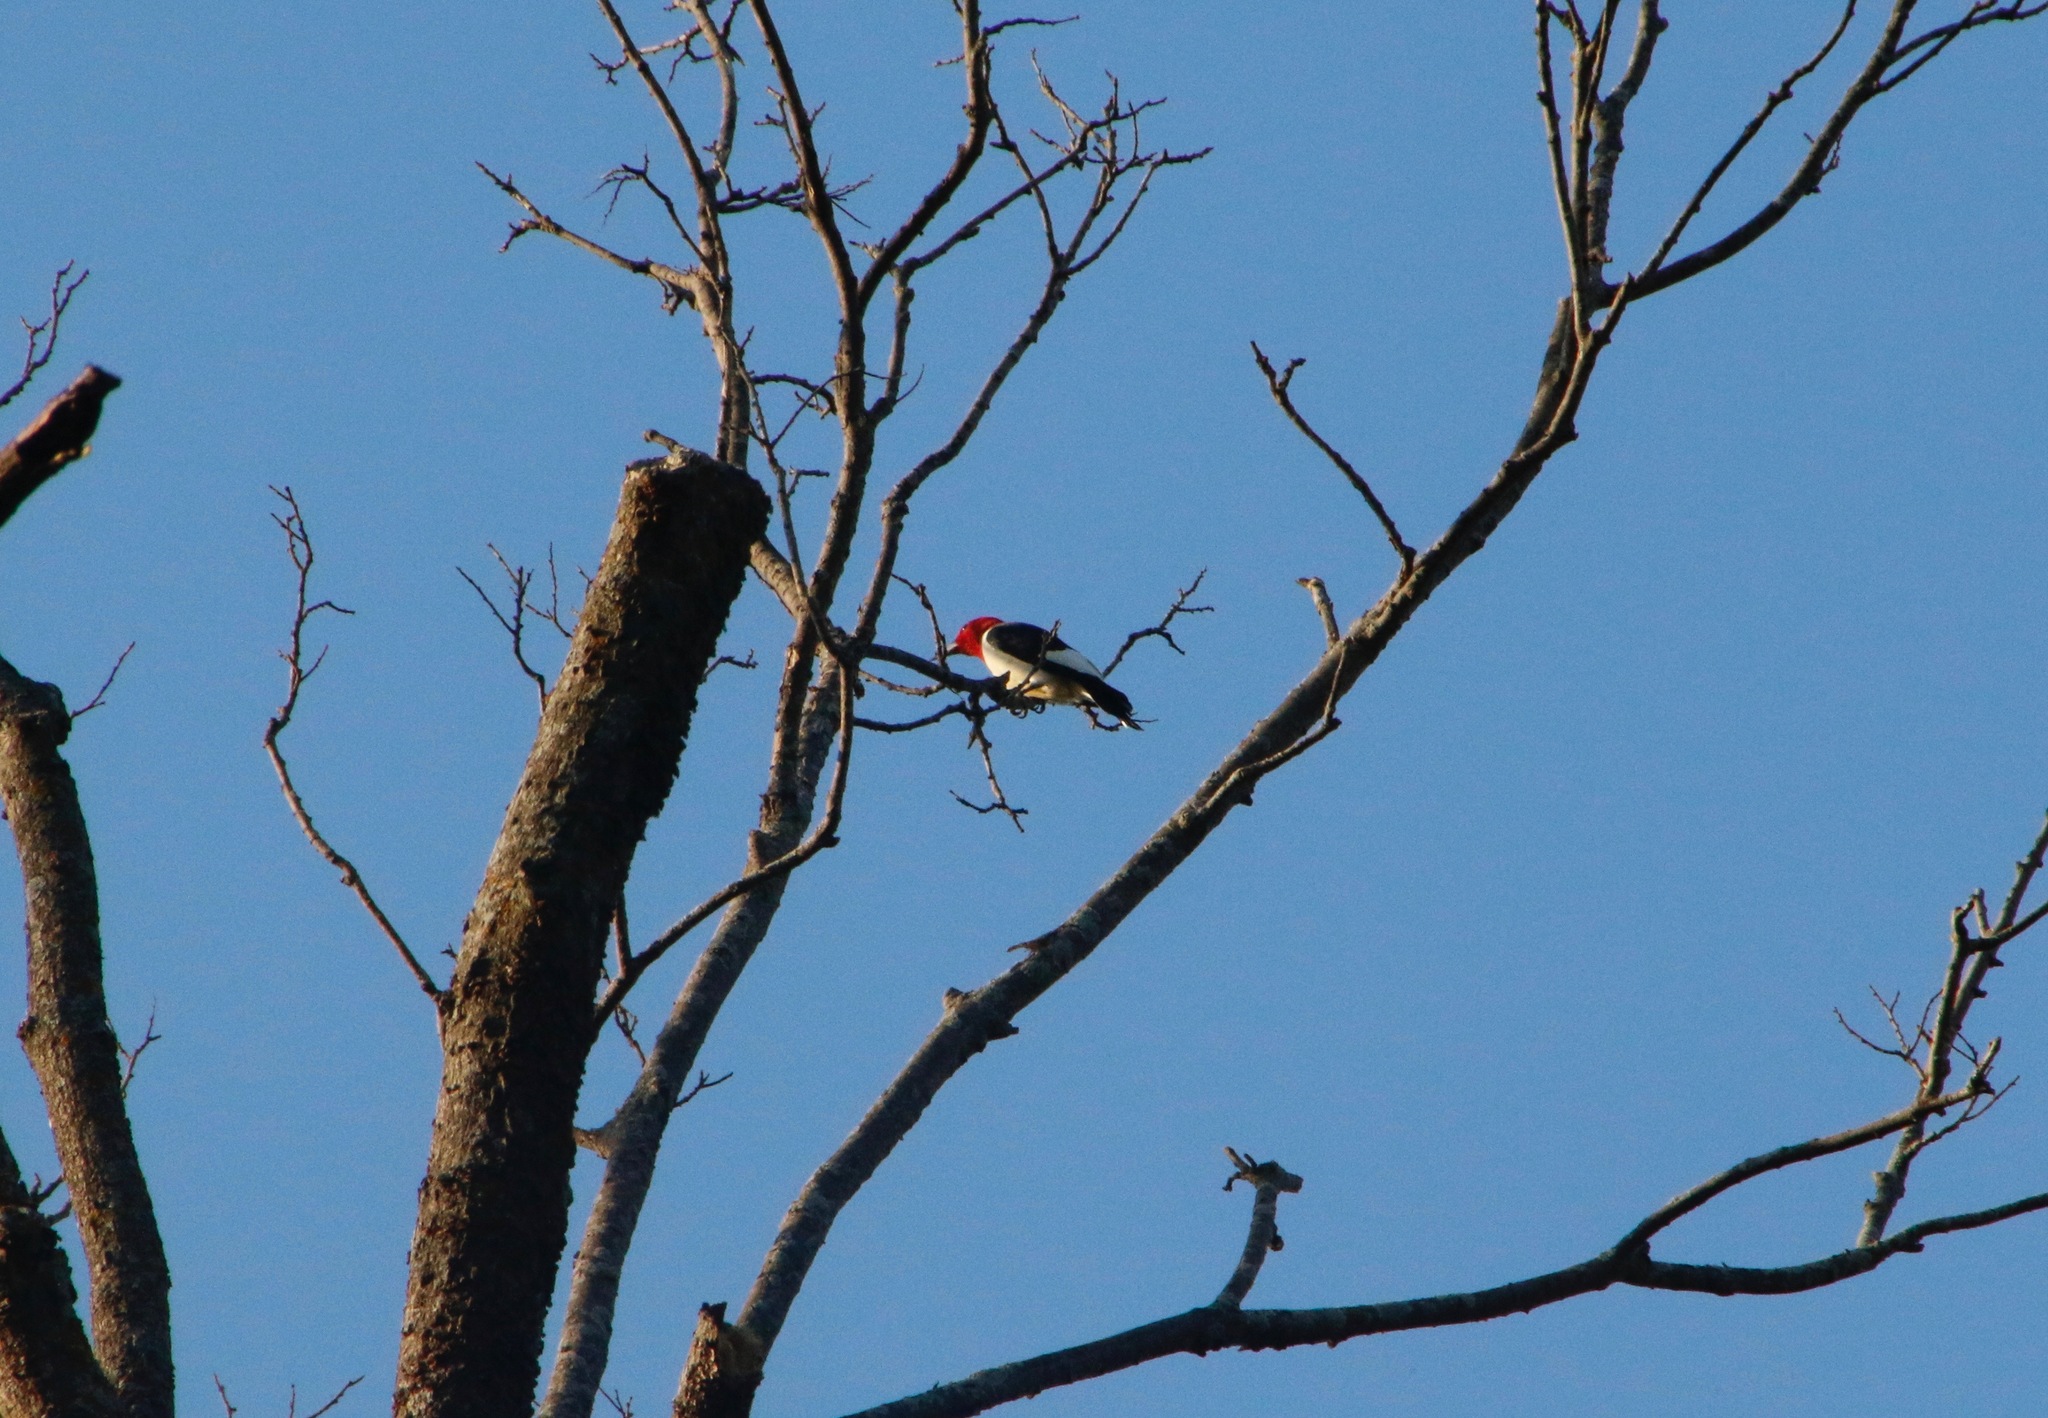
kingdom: Animalia
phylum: Chordata
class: Aves
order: Piciformes
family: Picidae
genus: Melanerpes
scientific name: Melanerpes erythrocephalus
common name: Red-headed woodpecker
